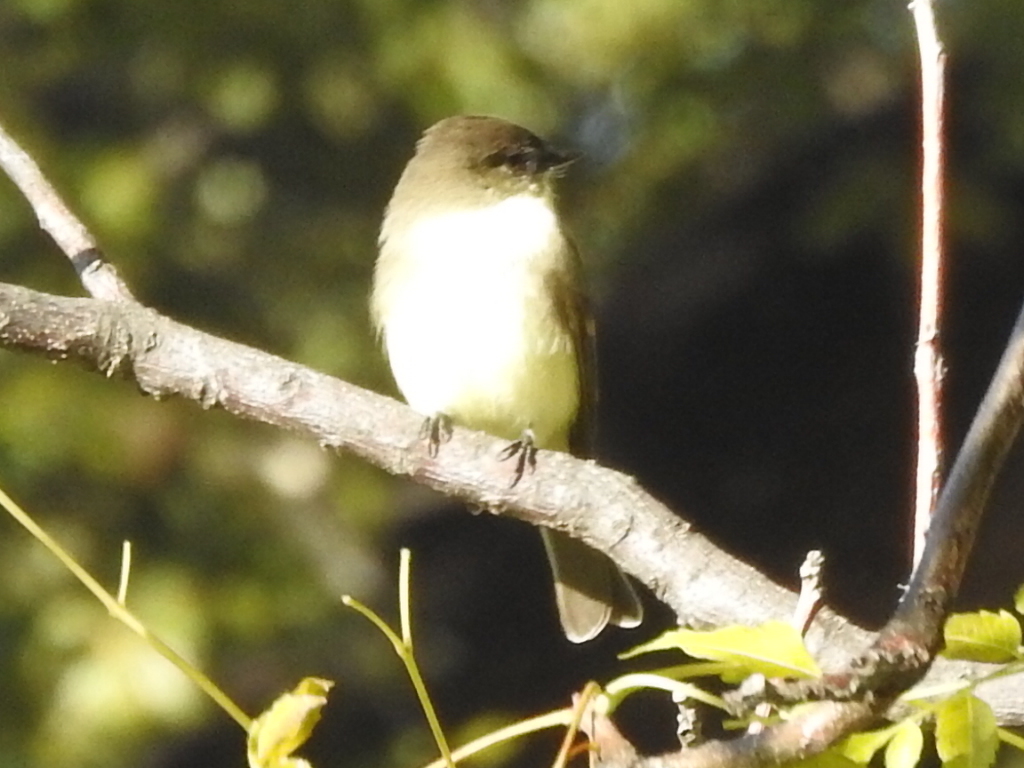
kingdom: Animalia
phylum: Chordata
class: Aves
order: Passeriformes
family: Tyrannidae
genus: Sayornis
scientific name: Sayornis phoebe
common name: Eastern phoebe
